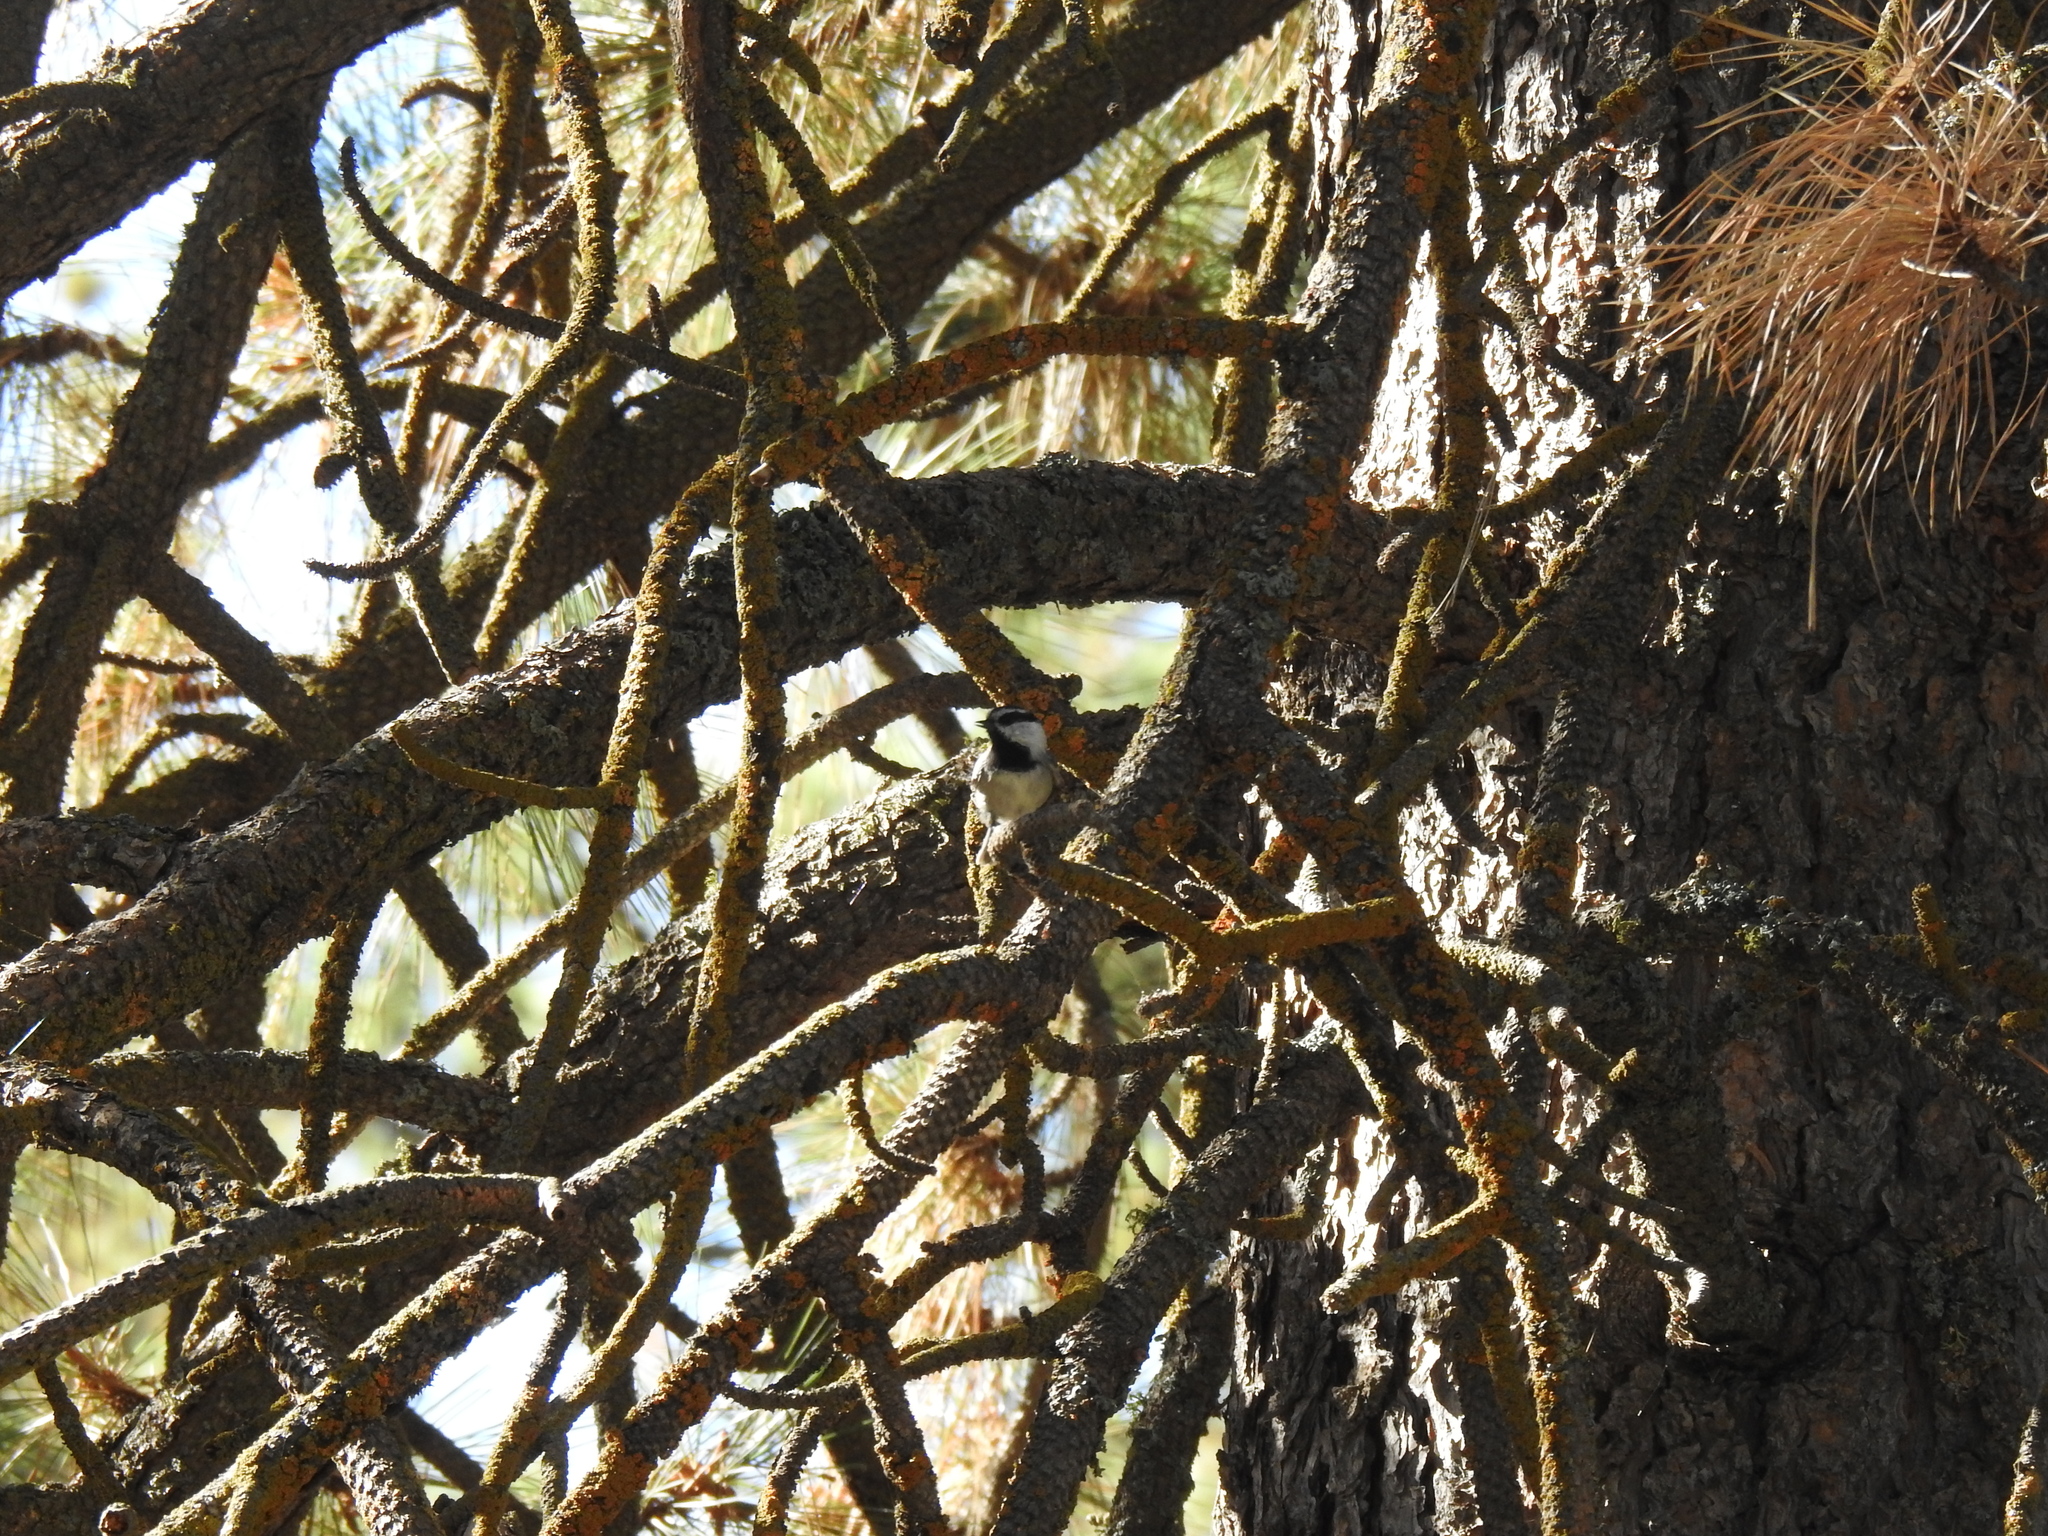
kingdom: Animalia
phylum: Chordata
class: Aves
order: Passeriformes
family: Paridae
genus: Poecile
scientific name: Poecile gambeli
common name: Mountain chickadee
